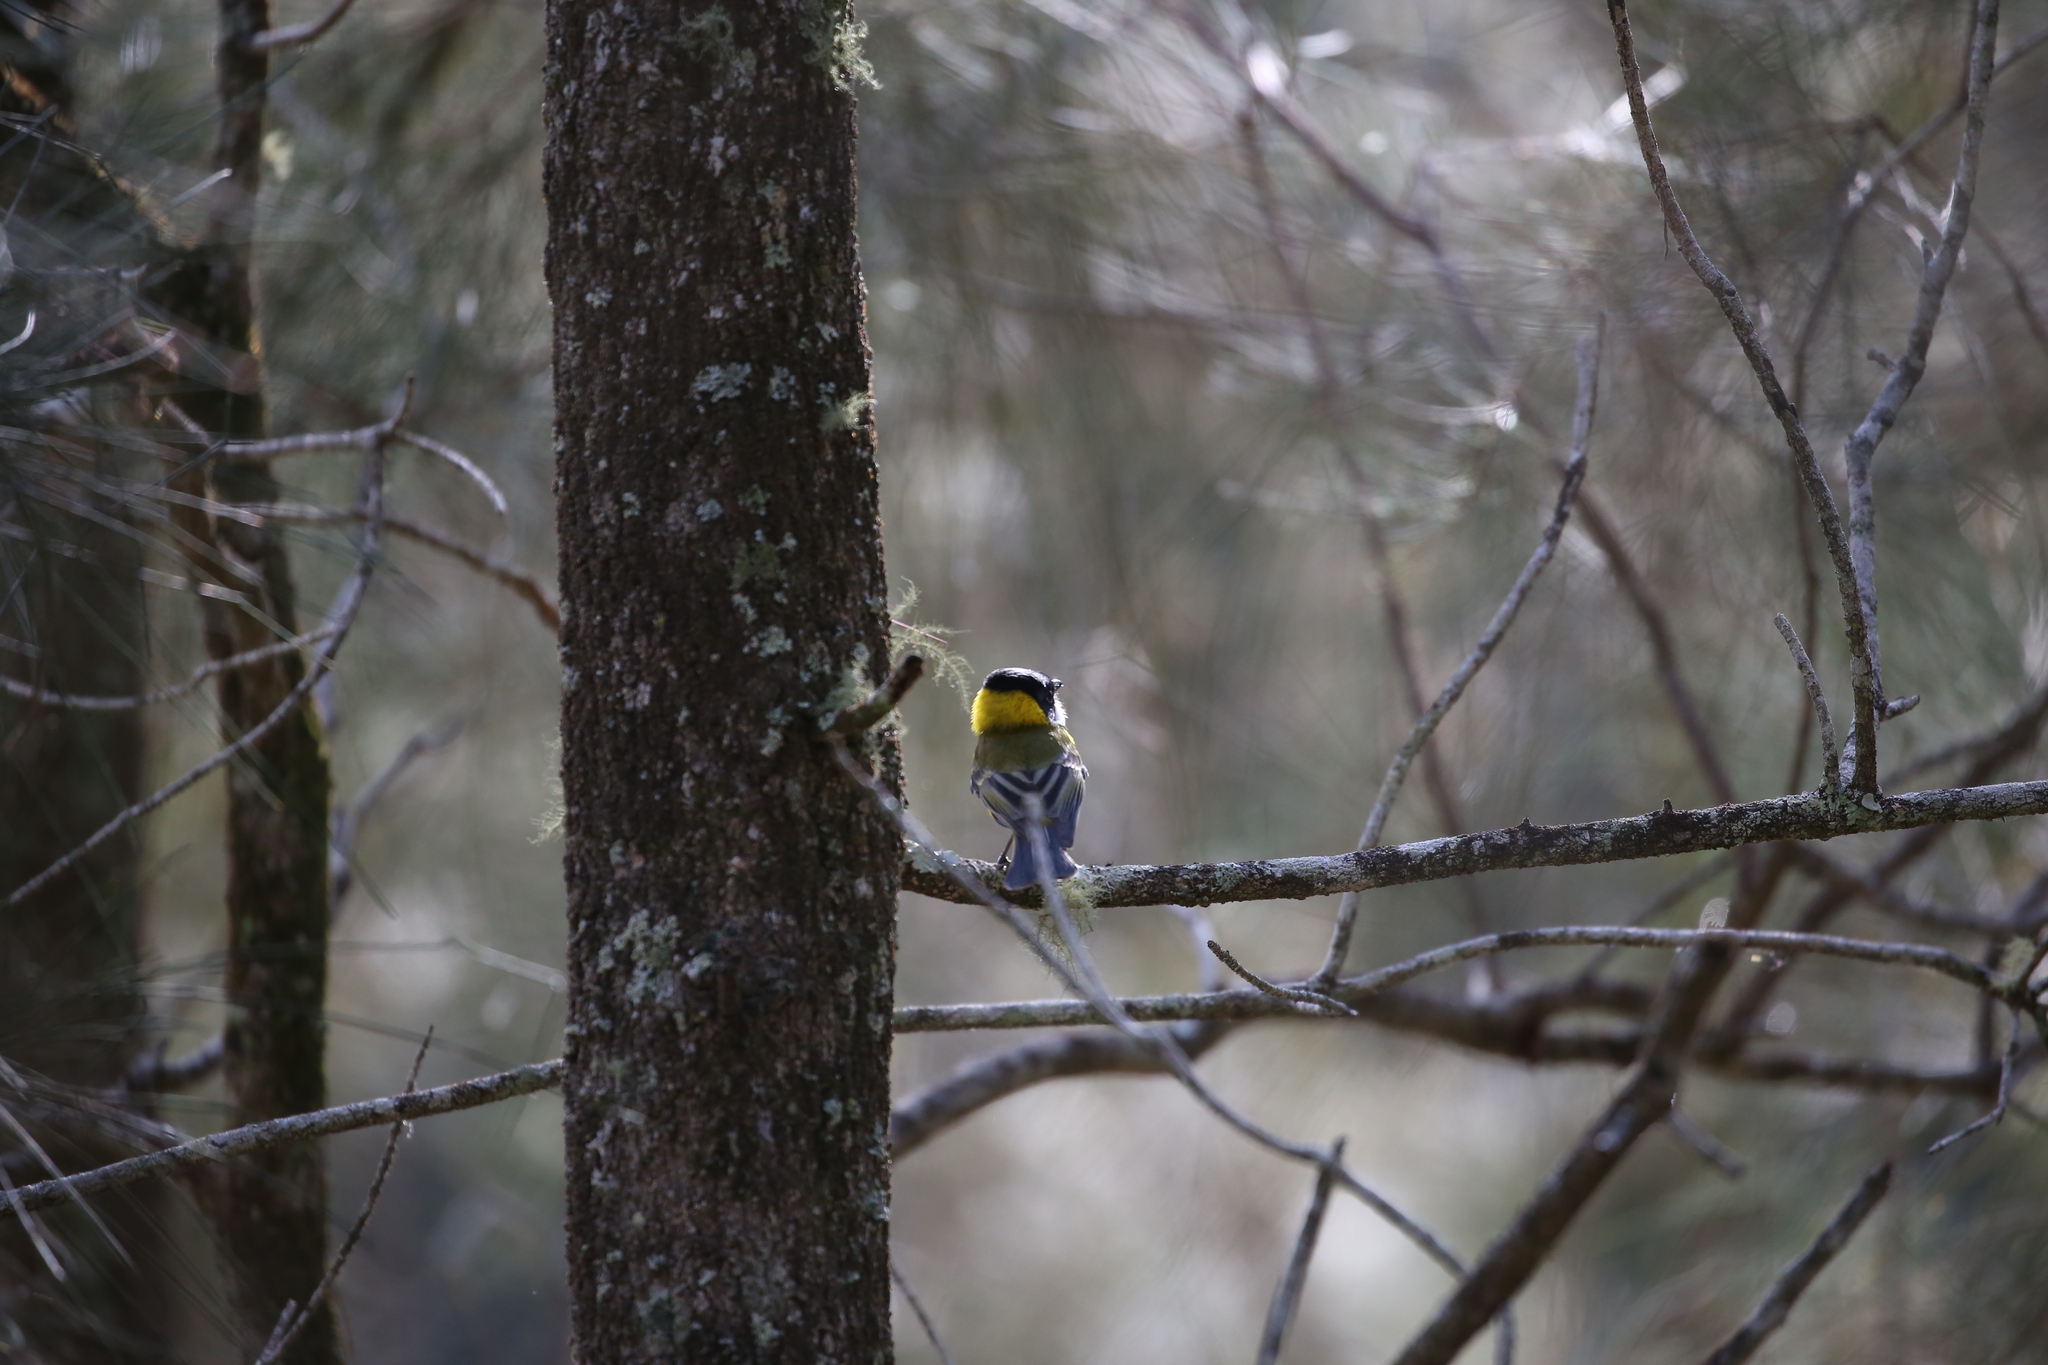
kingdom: Animalia
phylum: Chordata
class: Aves
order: Passeriformes
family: Pachycephalidae
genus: Pachycephala
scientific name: Pachycephala pectoralis
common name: Australian golden whistler
